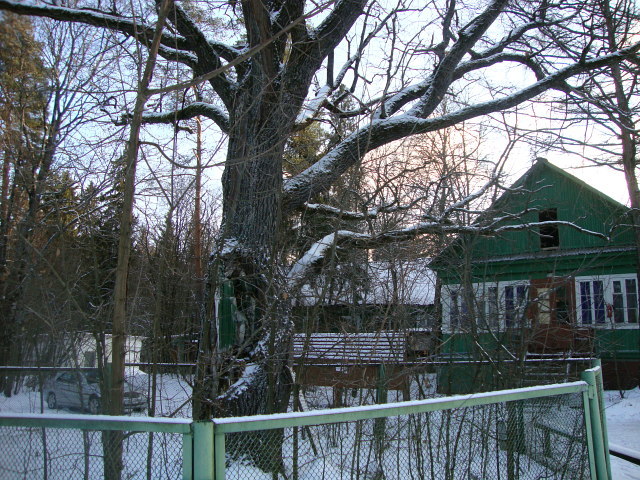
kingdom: Plantae
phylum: Tracheophyta
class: Magnoliopsida
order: Fagales
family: Fagaceae
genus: Quercus
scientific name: Quercus robur
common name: Pedunculate oak
